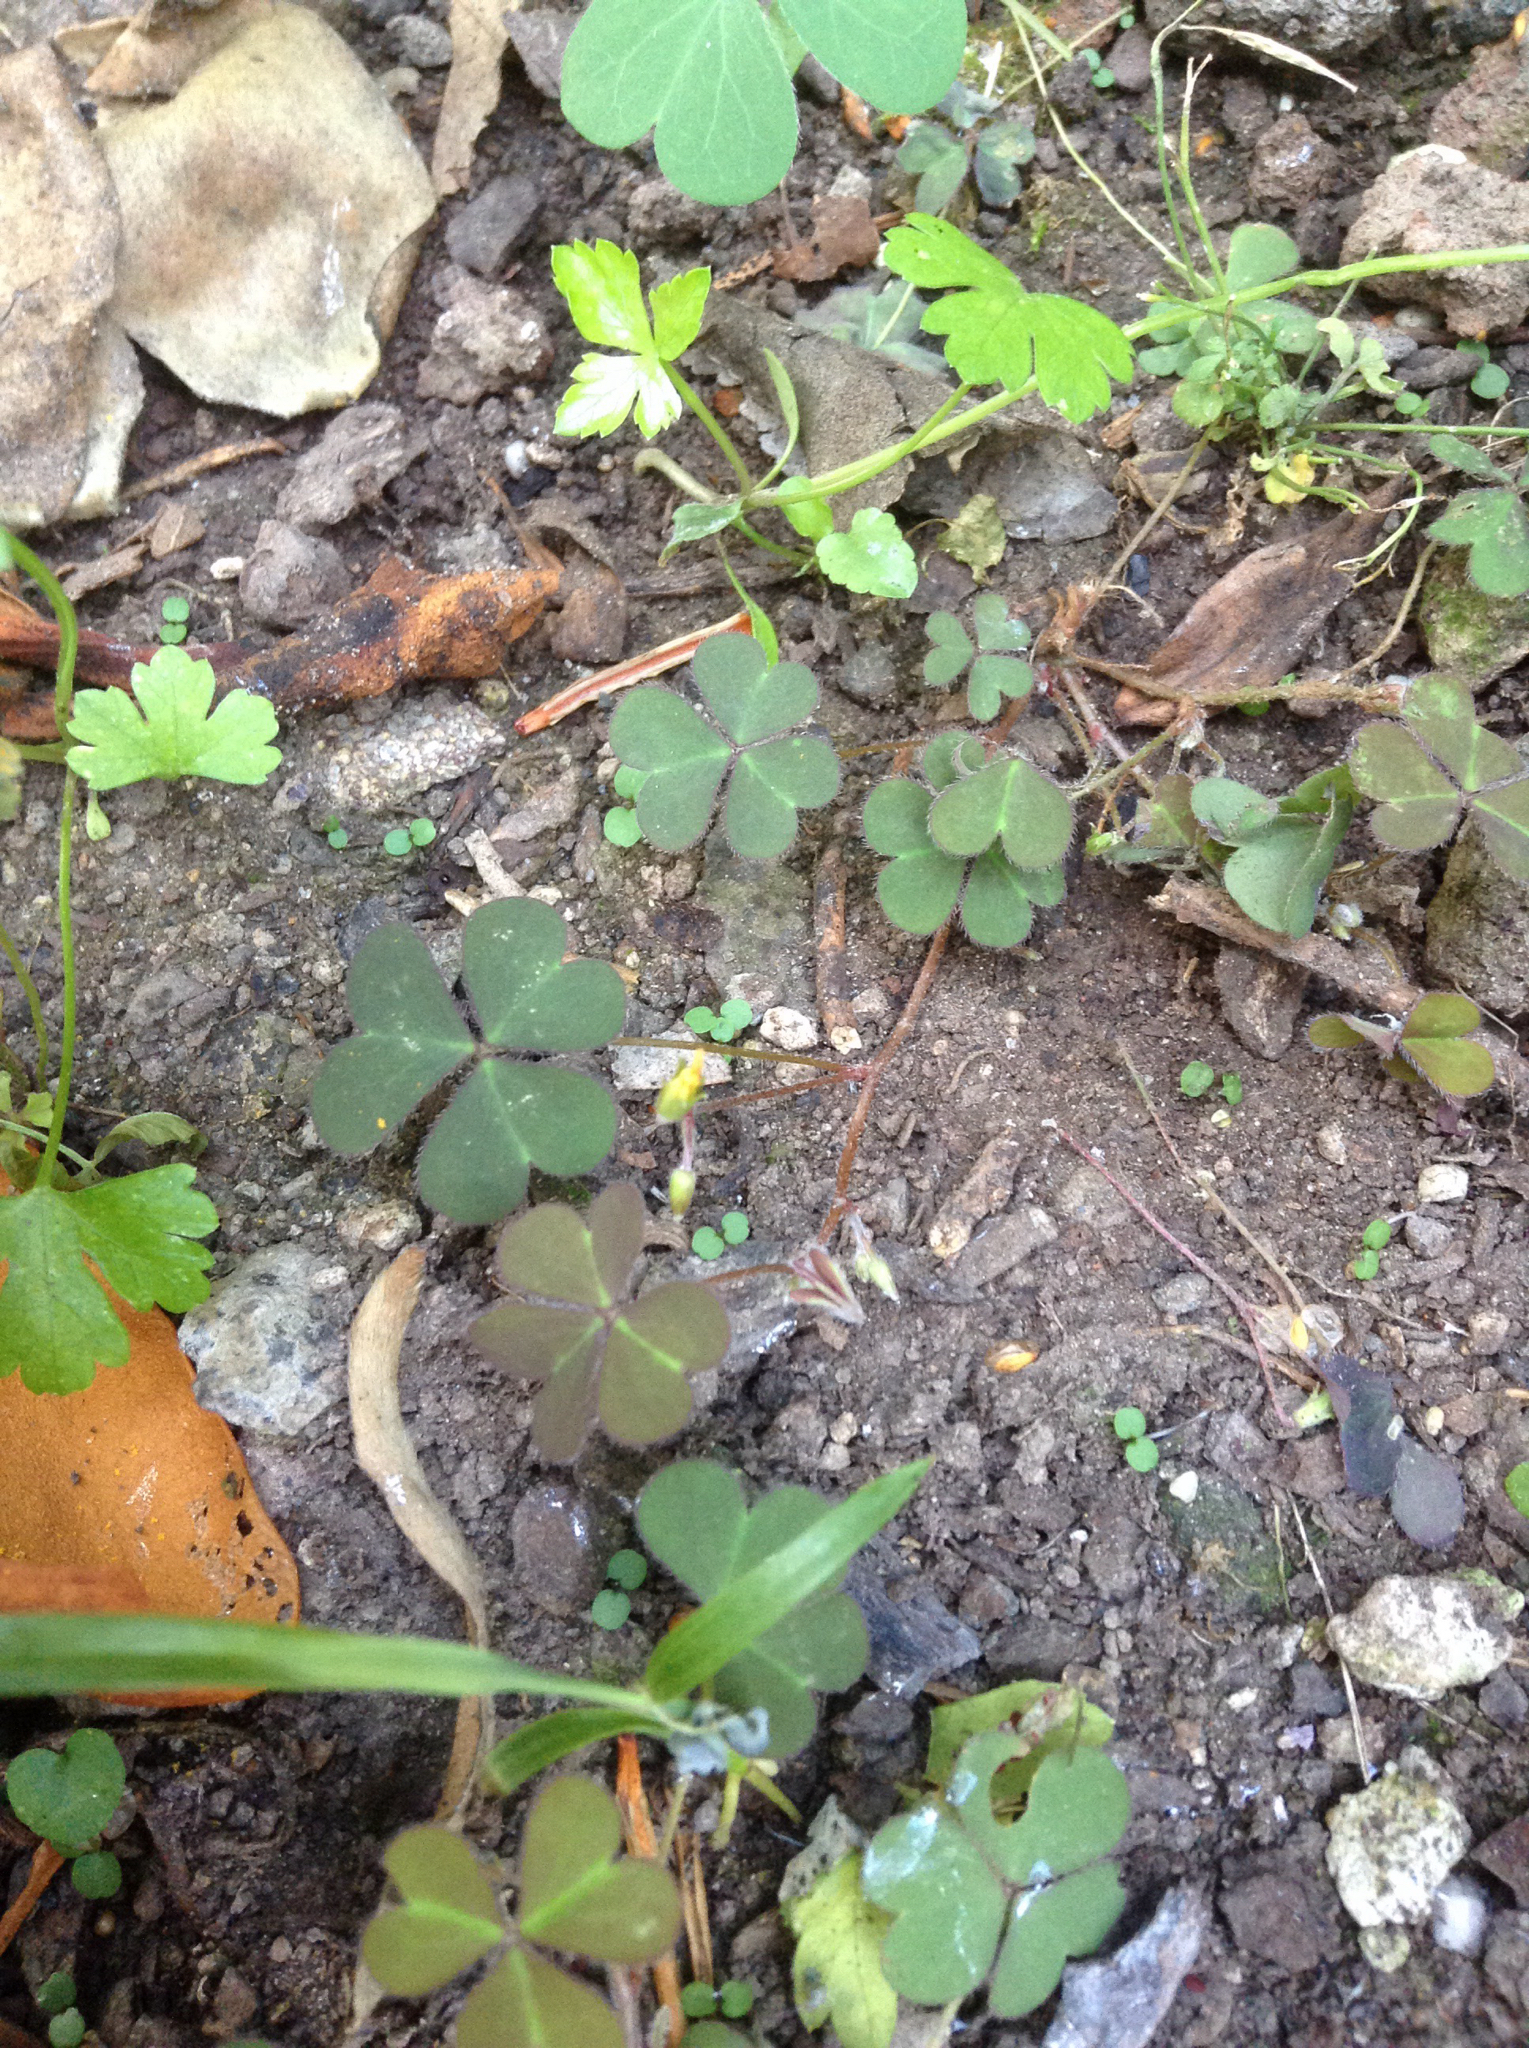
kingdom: Plantae
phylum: Tracheophyta
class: Magnoliopsida
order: Oxalidales
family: Oxalidaceae
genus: Oxalis
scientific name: Oxalis corniculata
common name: Procumbent yellow-sorrel
